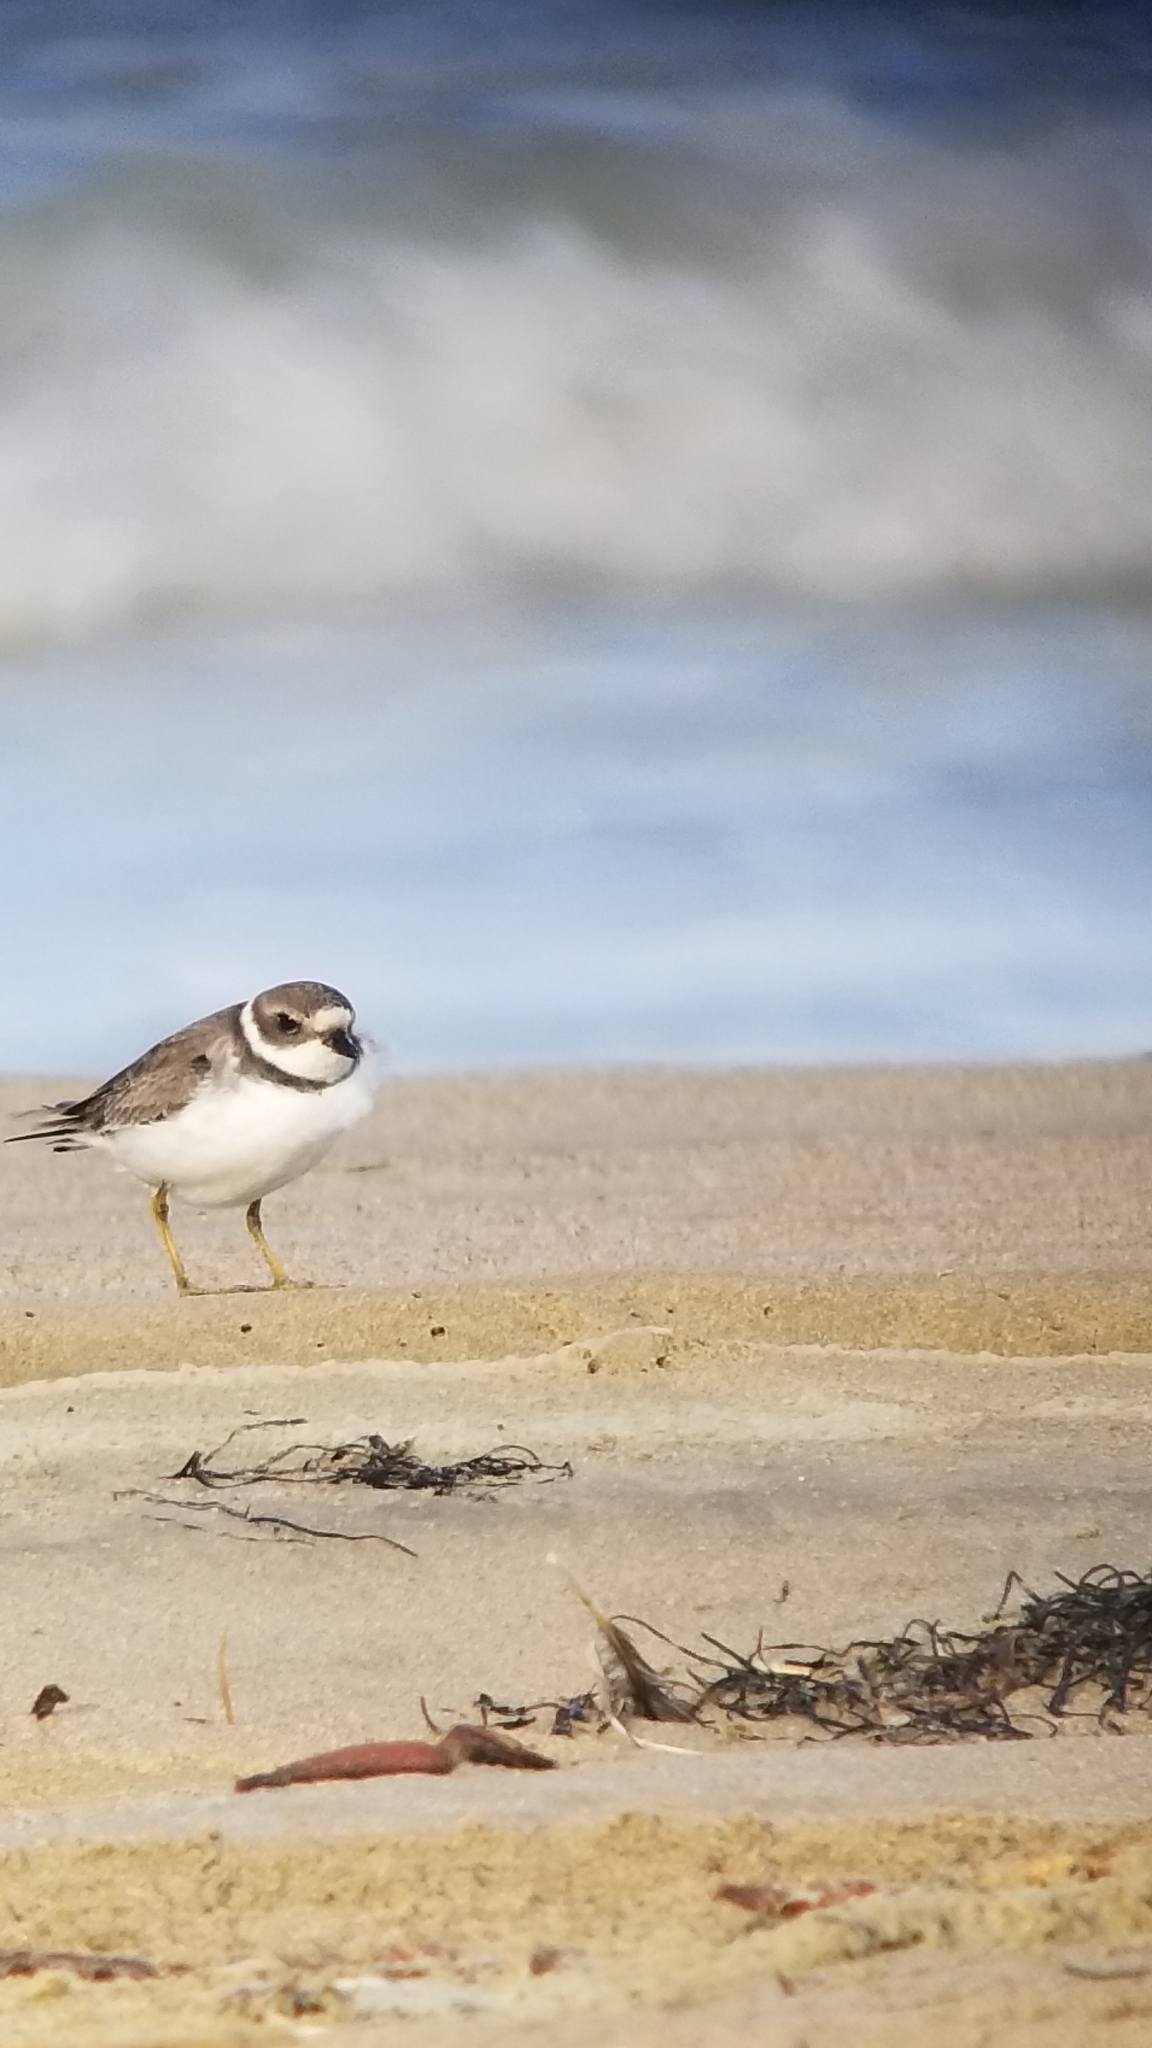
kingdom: Animalia
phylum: Chordata
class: Aves
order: Charadriiformes
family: Charadriidae
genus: Charadrius
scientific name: Charadrius semipalmatus
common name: Semipalmated plover
